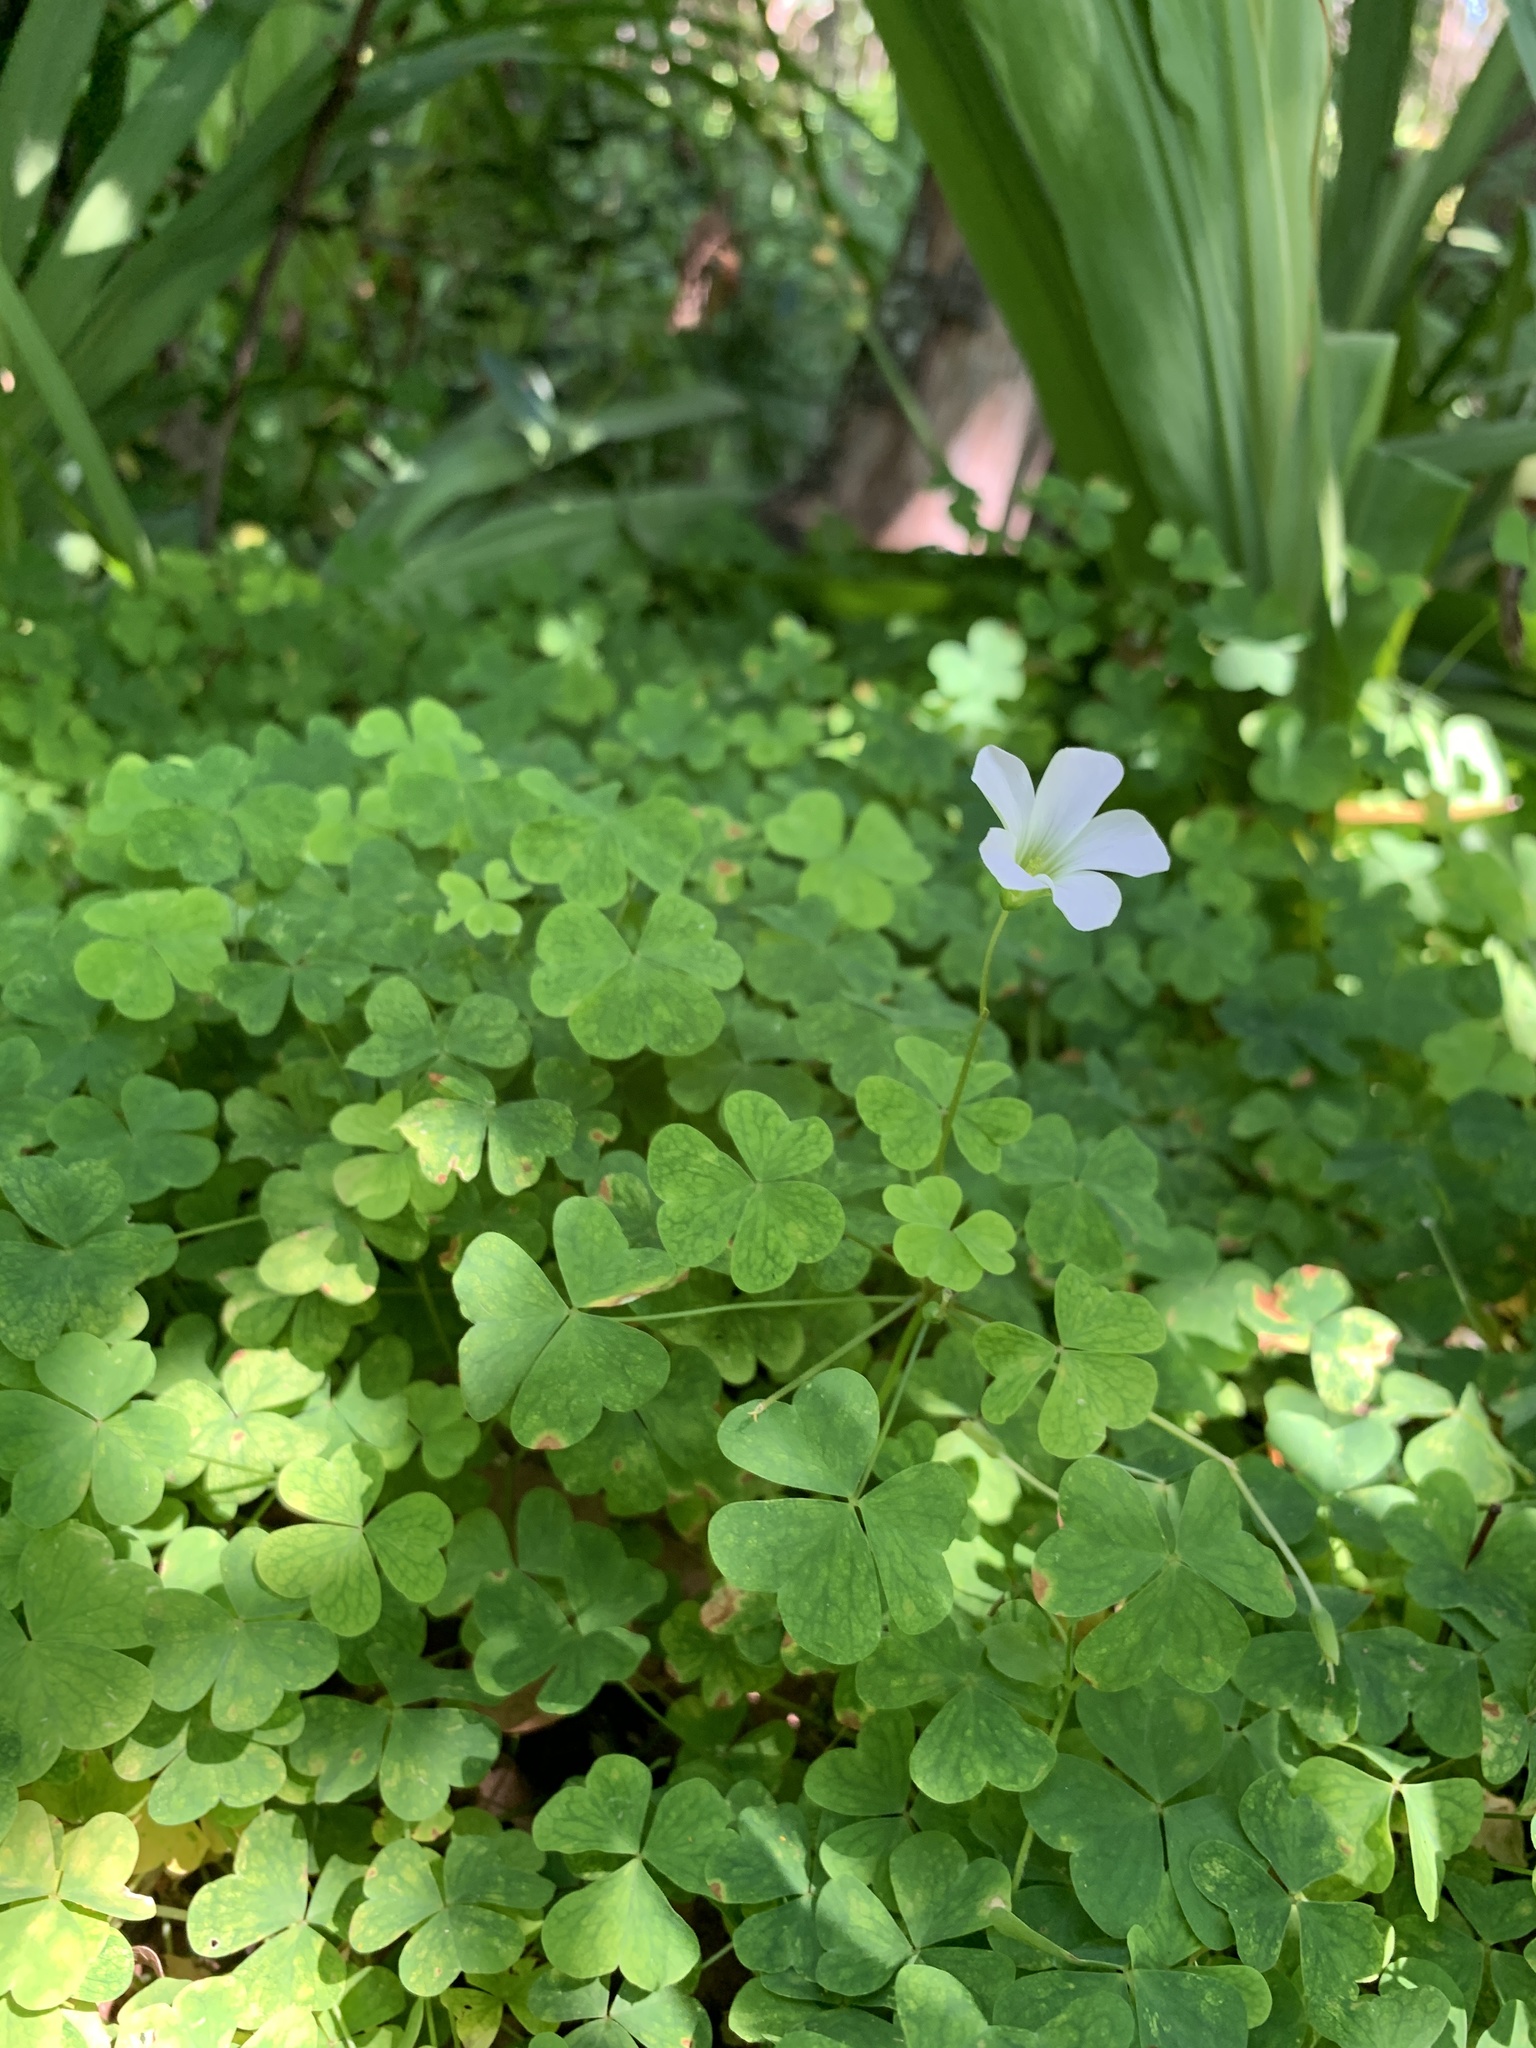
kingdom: Plantae
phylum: Tracheophyta
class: Magnoliopsida
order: Oxalidales
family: Oxalidaceae
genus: Oxalis
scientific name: Oxalis incarnata
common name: Pale pink-sorrel
